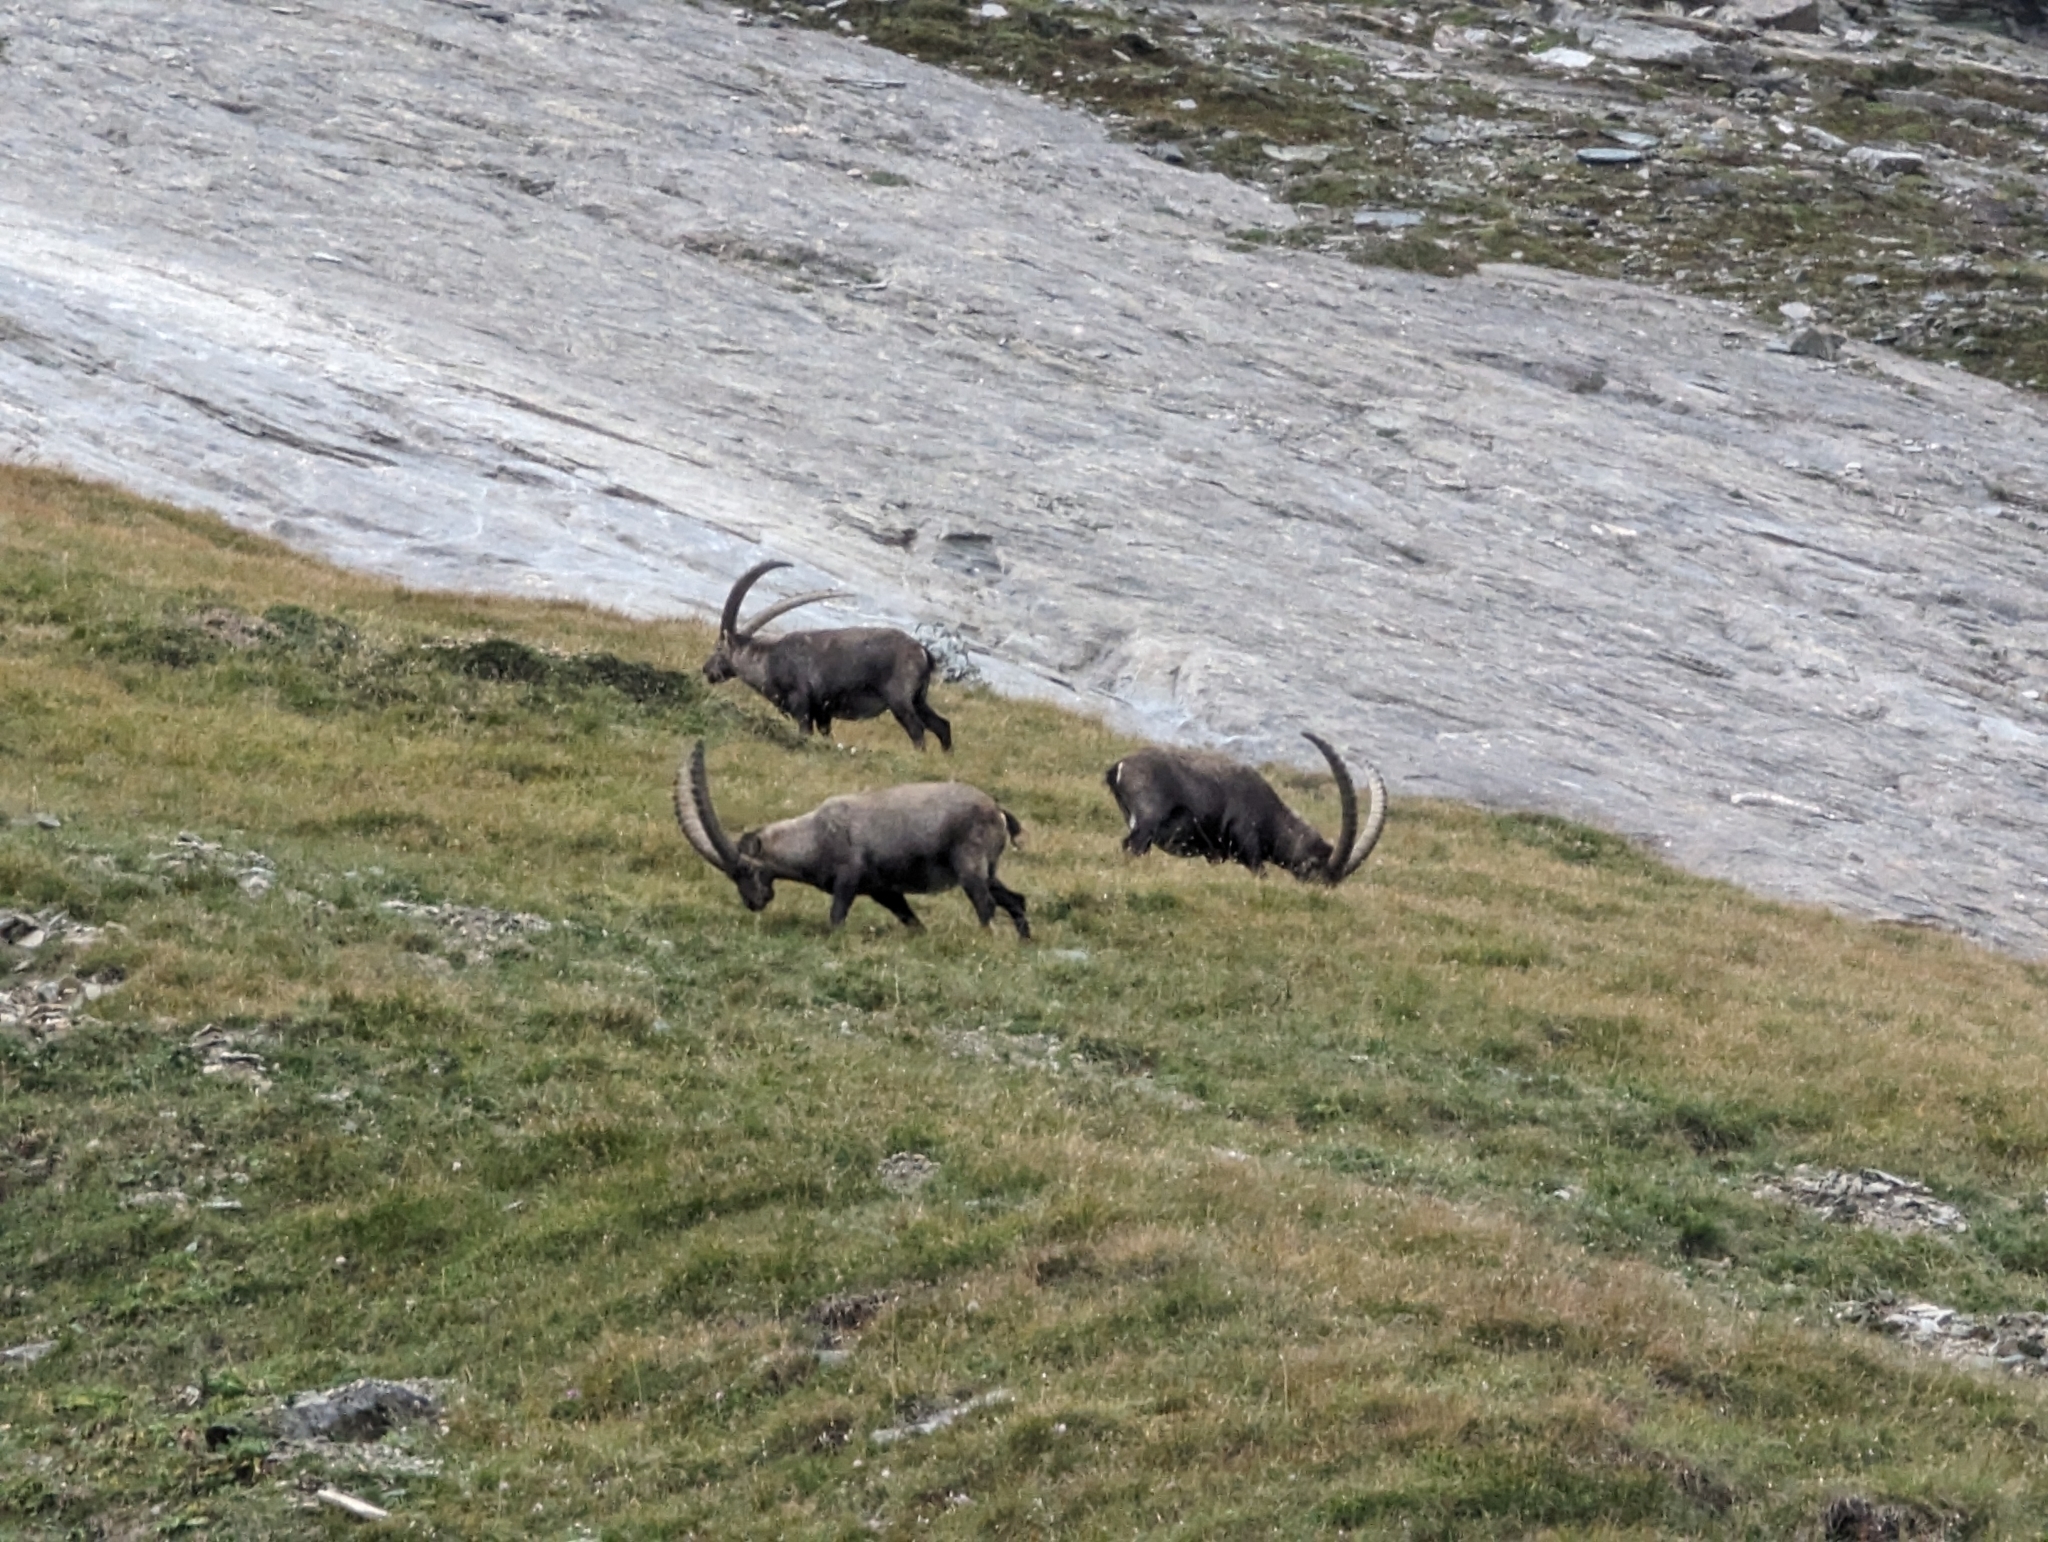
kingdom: Animalia
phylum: Chordata
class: Mammalia
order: Artiodactyla
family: Bovidae
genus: Capra
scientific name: Capra ibex
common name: Alpine ibex
